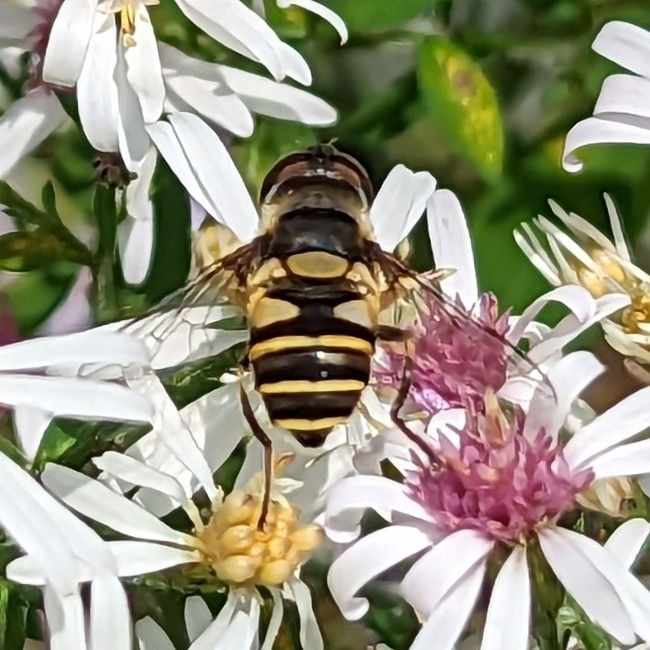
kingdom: Animalia
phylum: Arthropoda
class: Insecta
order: Diptera
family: Syrphidae
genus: Eristalis
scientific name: Eristalis transversa
